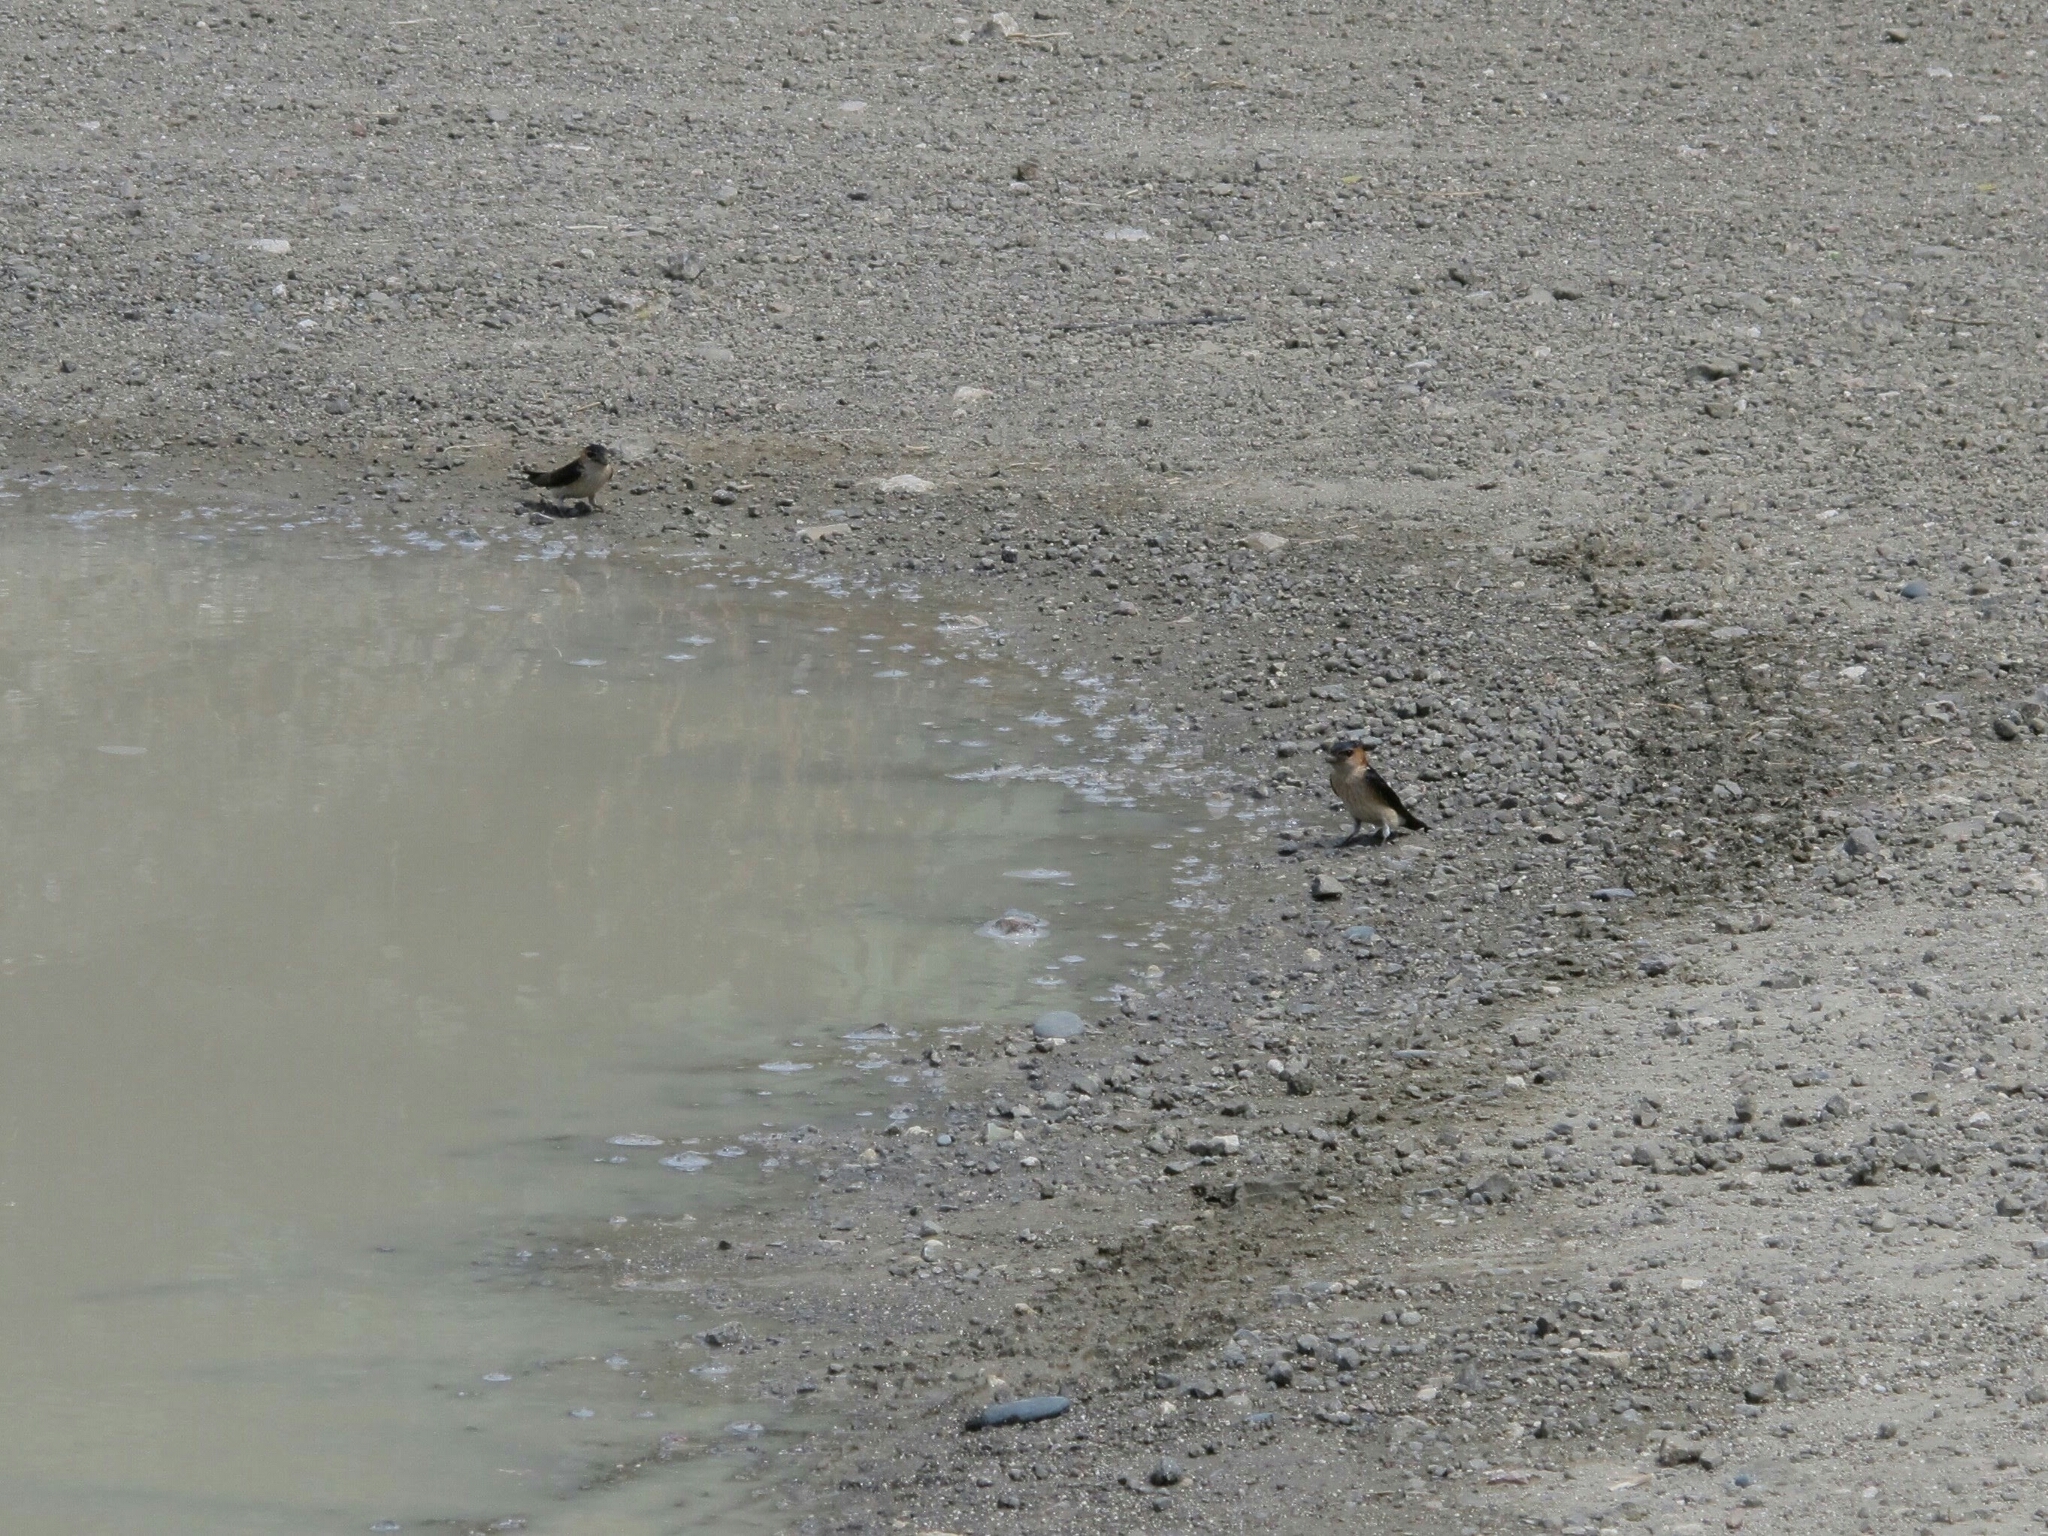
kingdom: Animalia
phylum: Chordata
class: Aves
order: Passeriformes
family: Hirundinidae
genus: Cecropis
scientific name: Cecropis daurica
